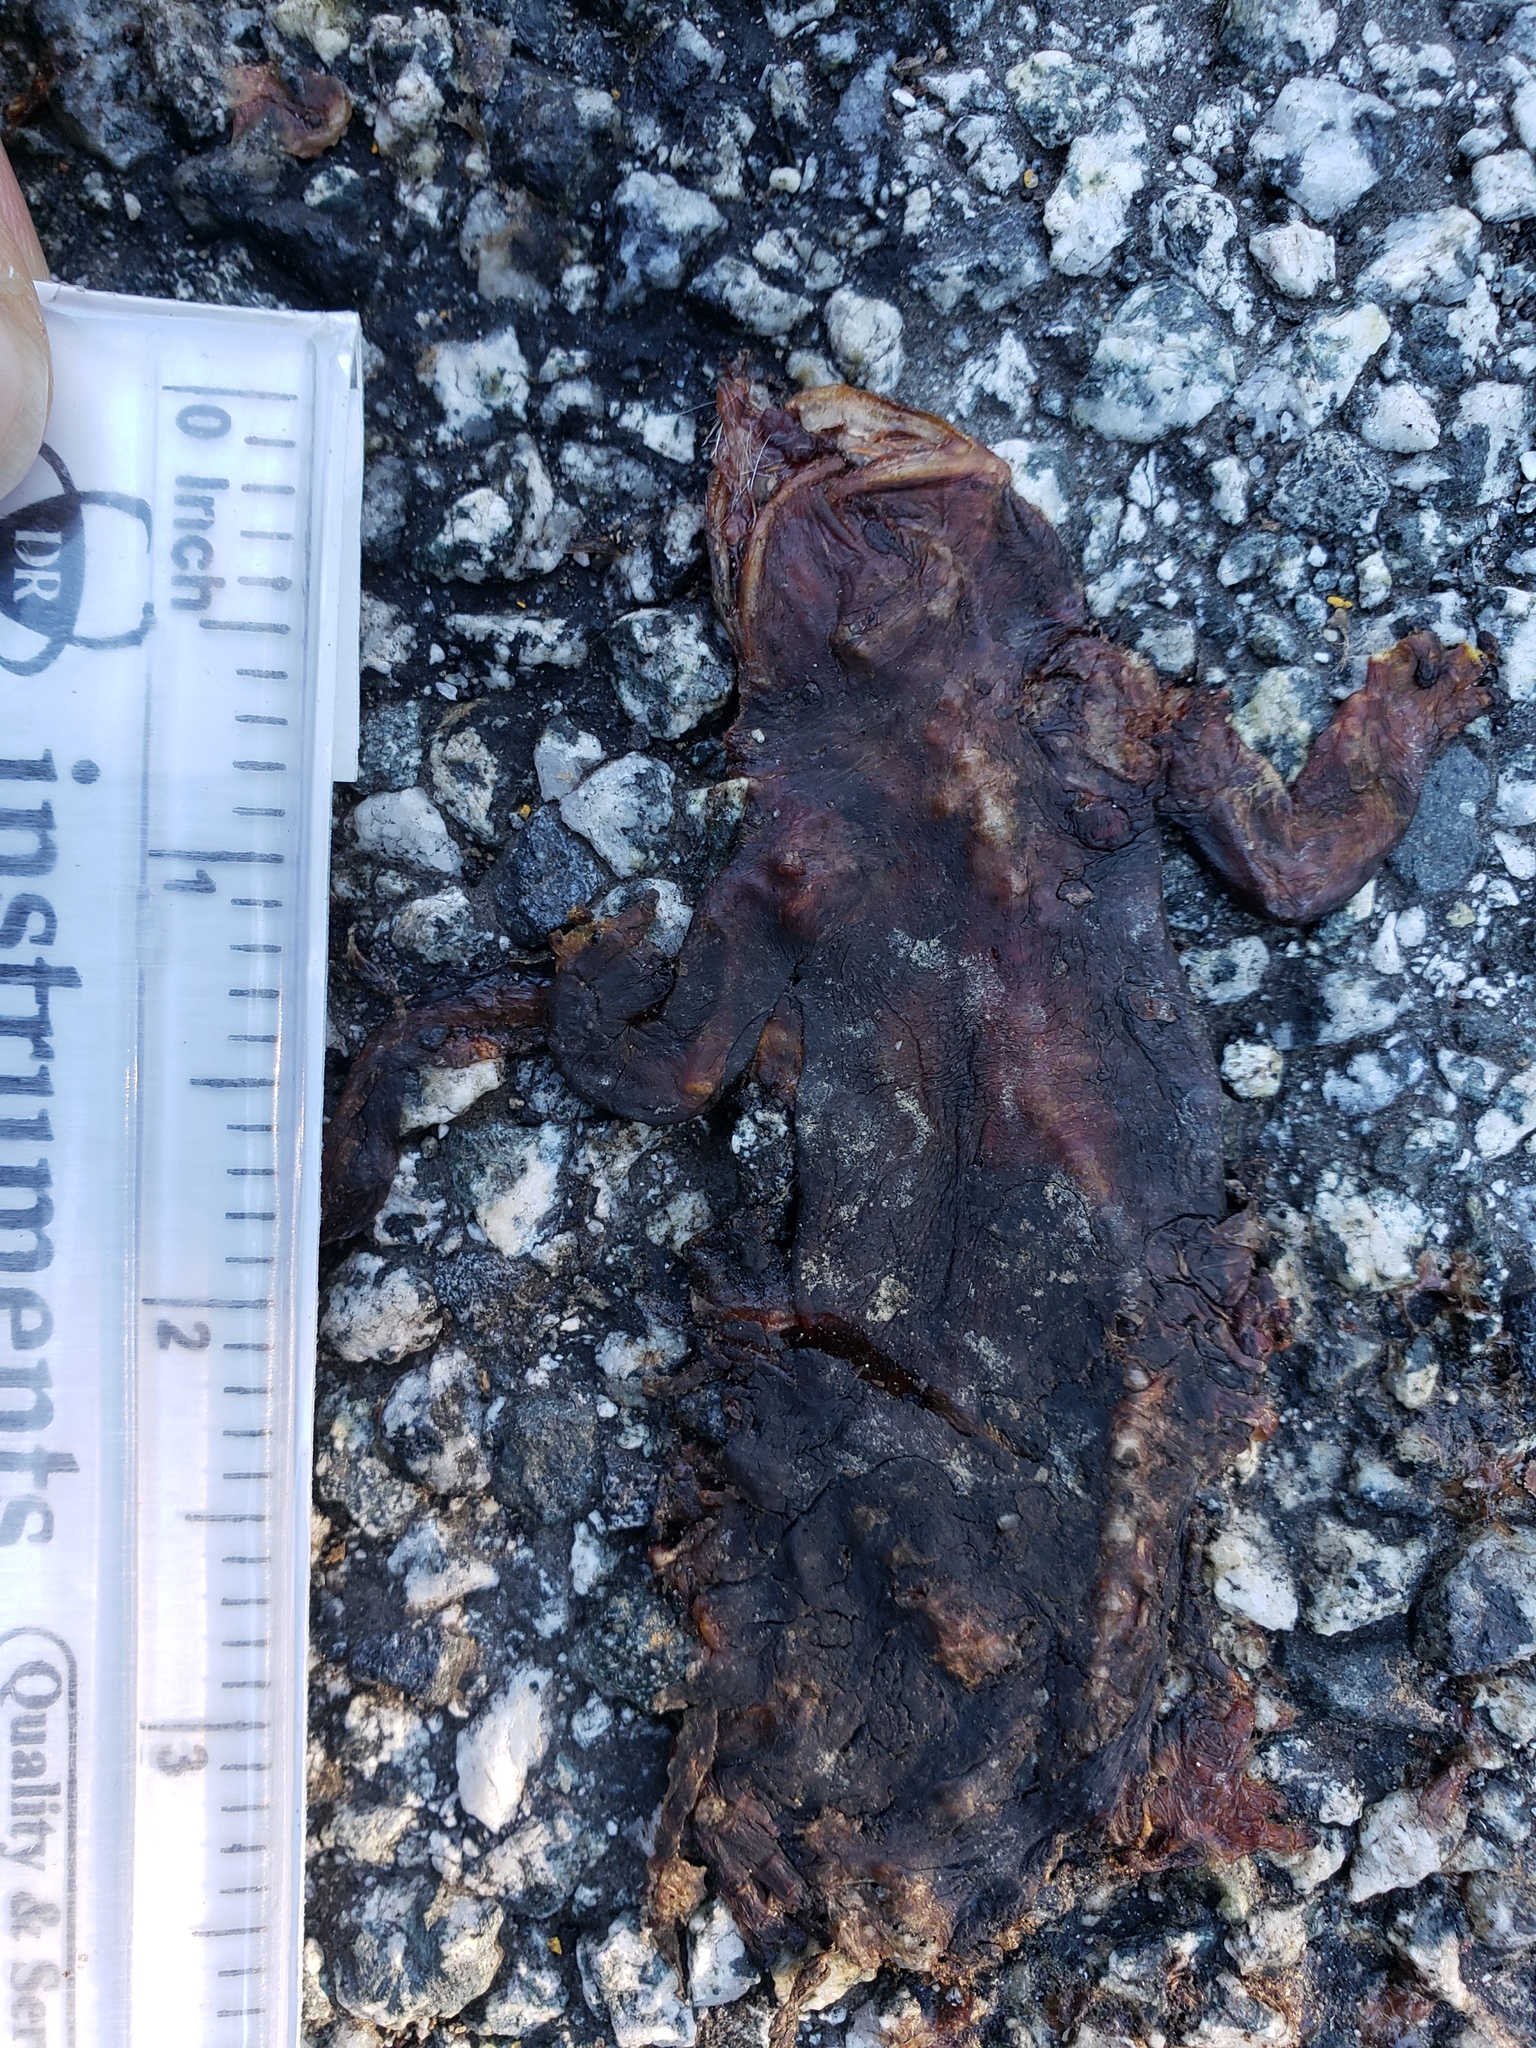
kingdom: Animalia
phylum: Chordata
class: Amphibia
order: Caudata
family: Salamandridae
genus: Taricha
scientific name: Taricha
